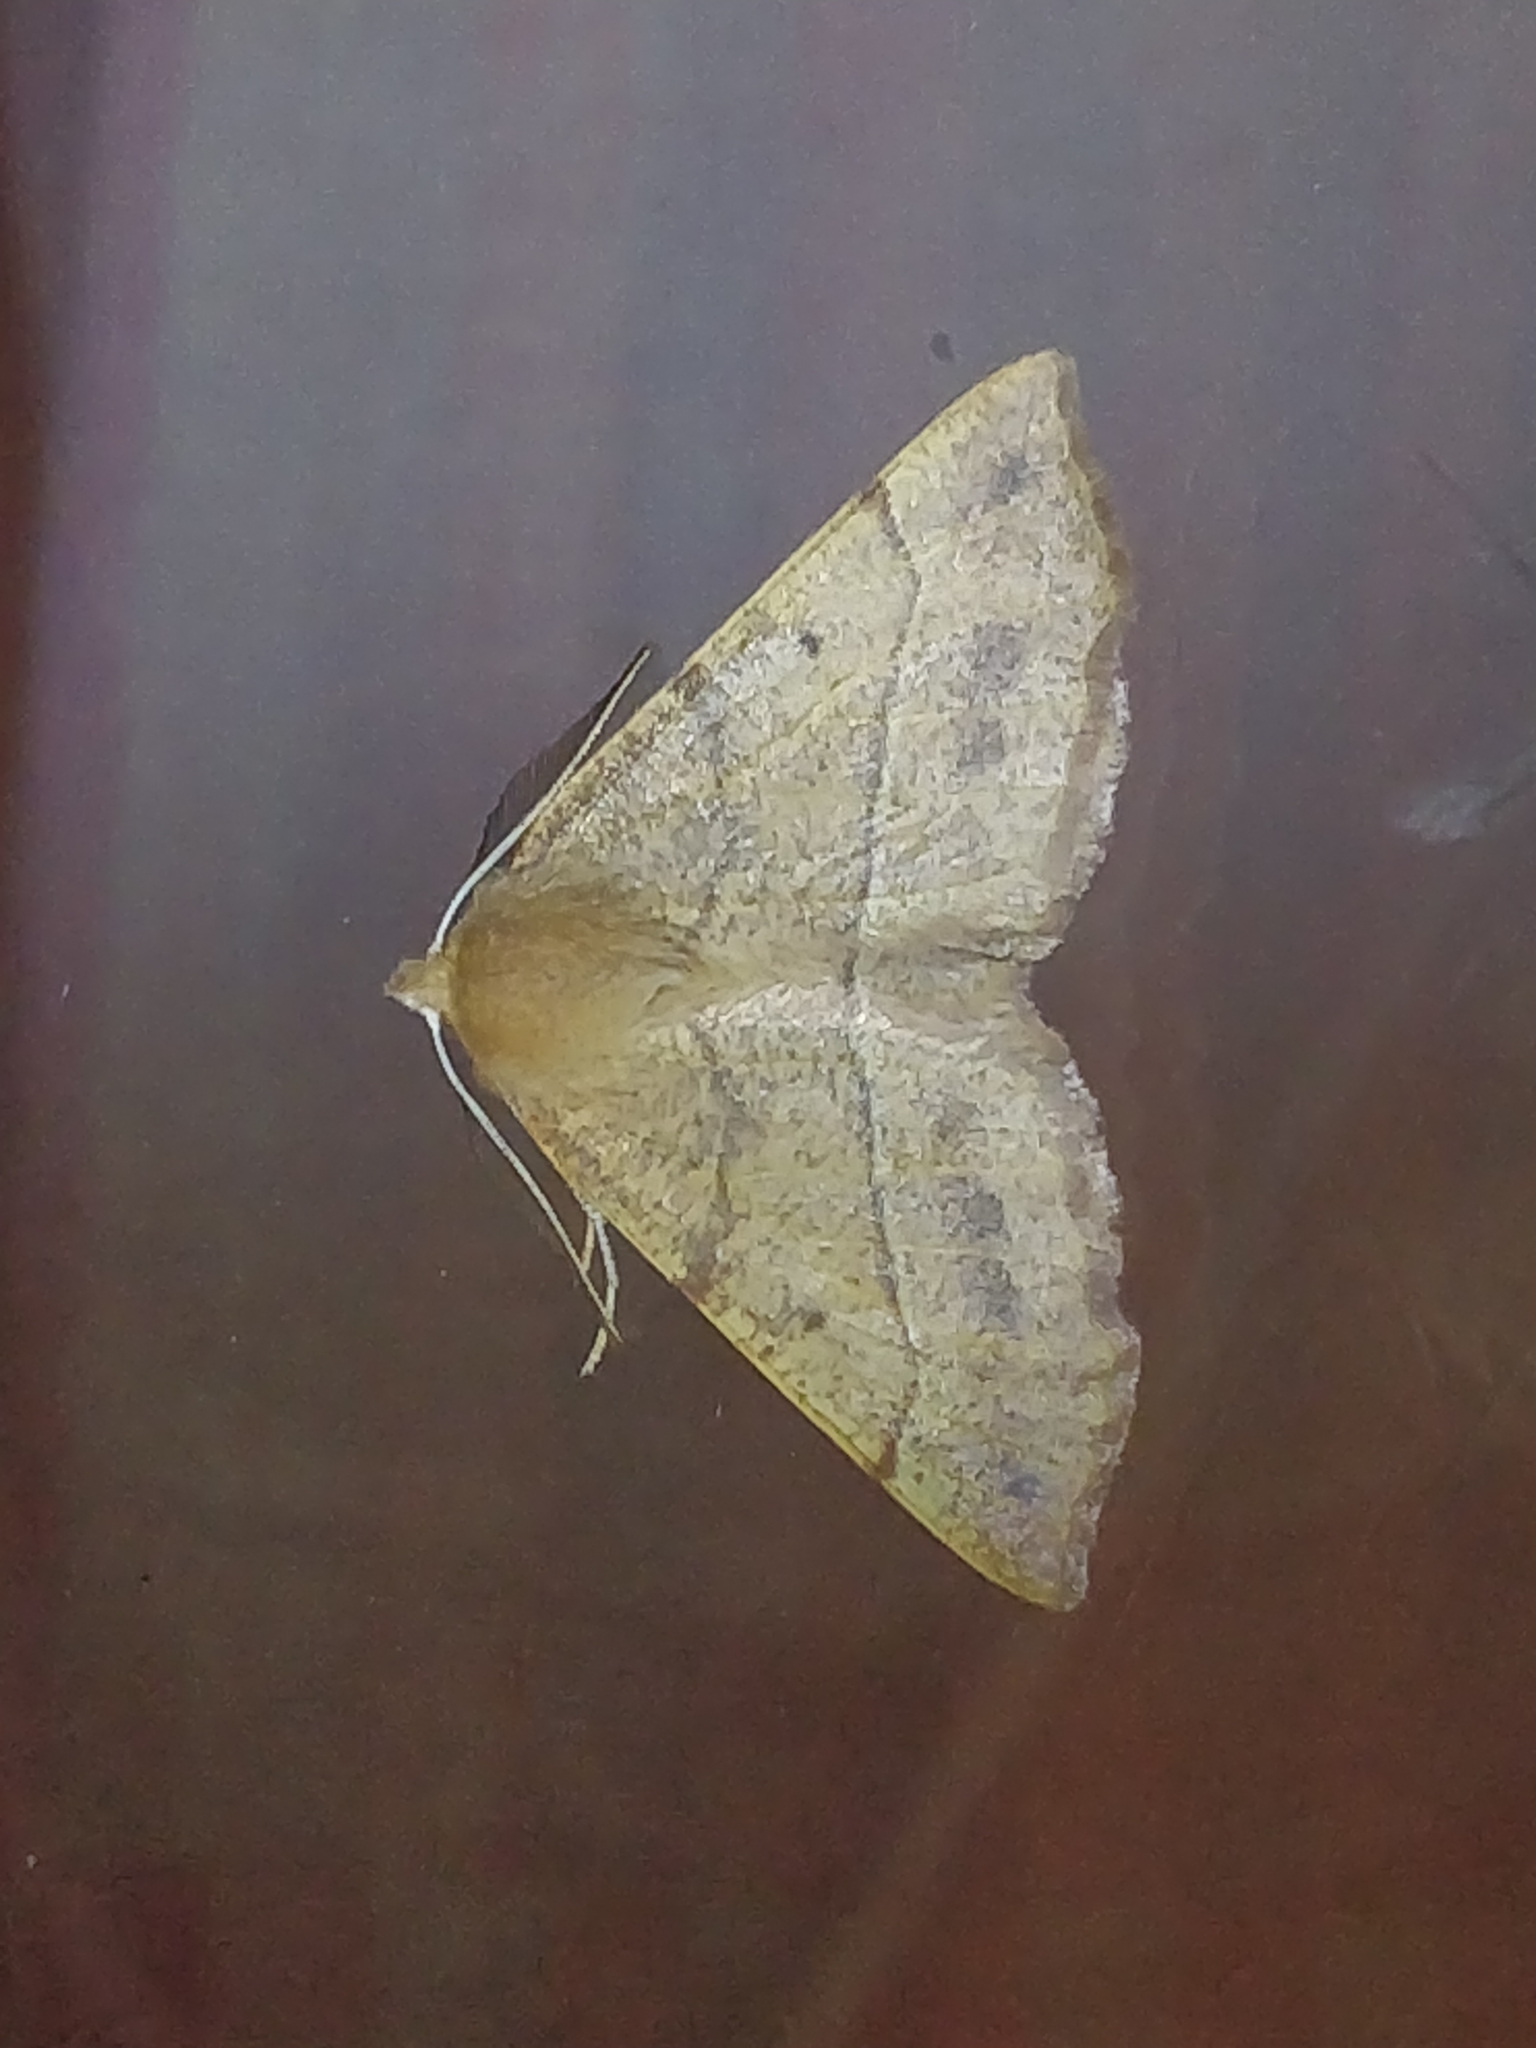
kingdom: Animalia
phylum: Arthropoda
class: Insecta
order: Lepidoptera
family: Geometridae
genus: Colotois
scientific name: Colotois pennaria
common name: Feathered thorn
